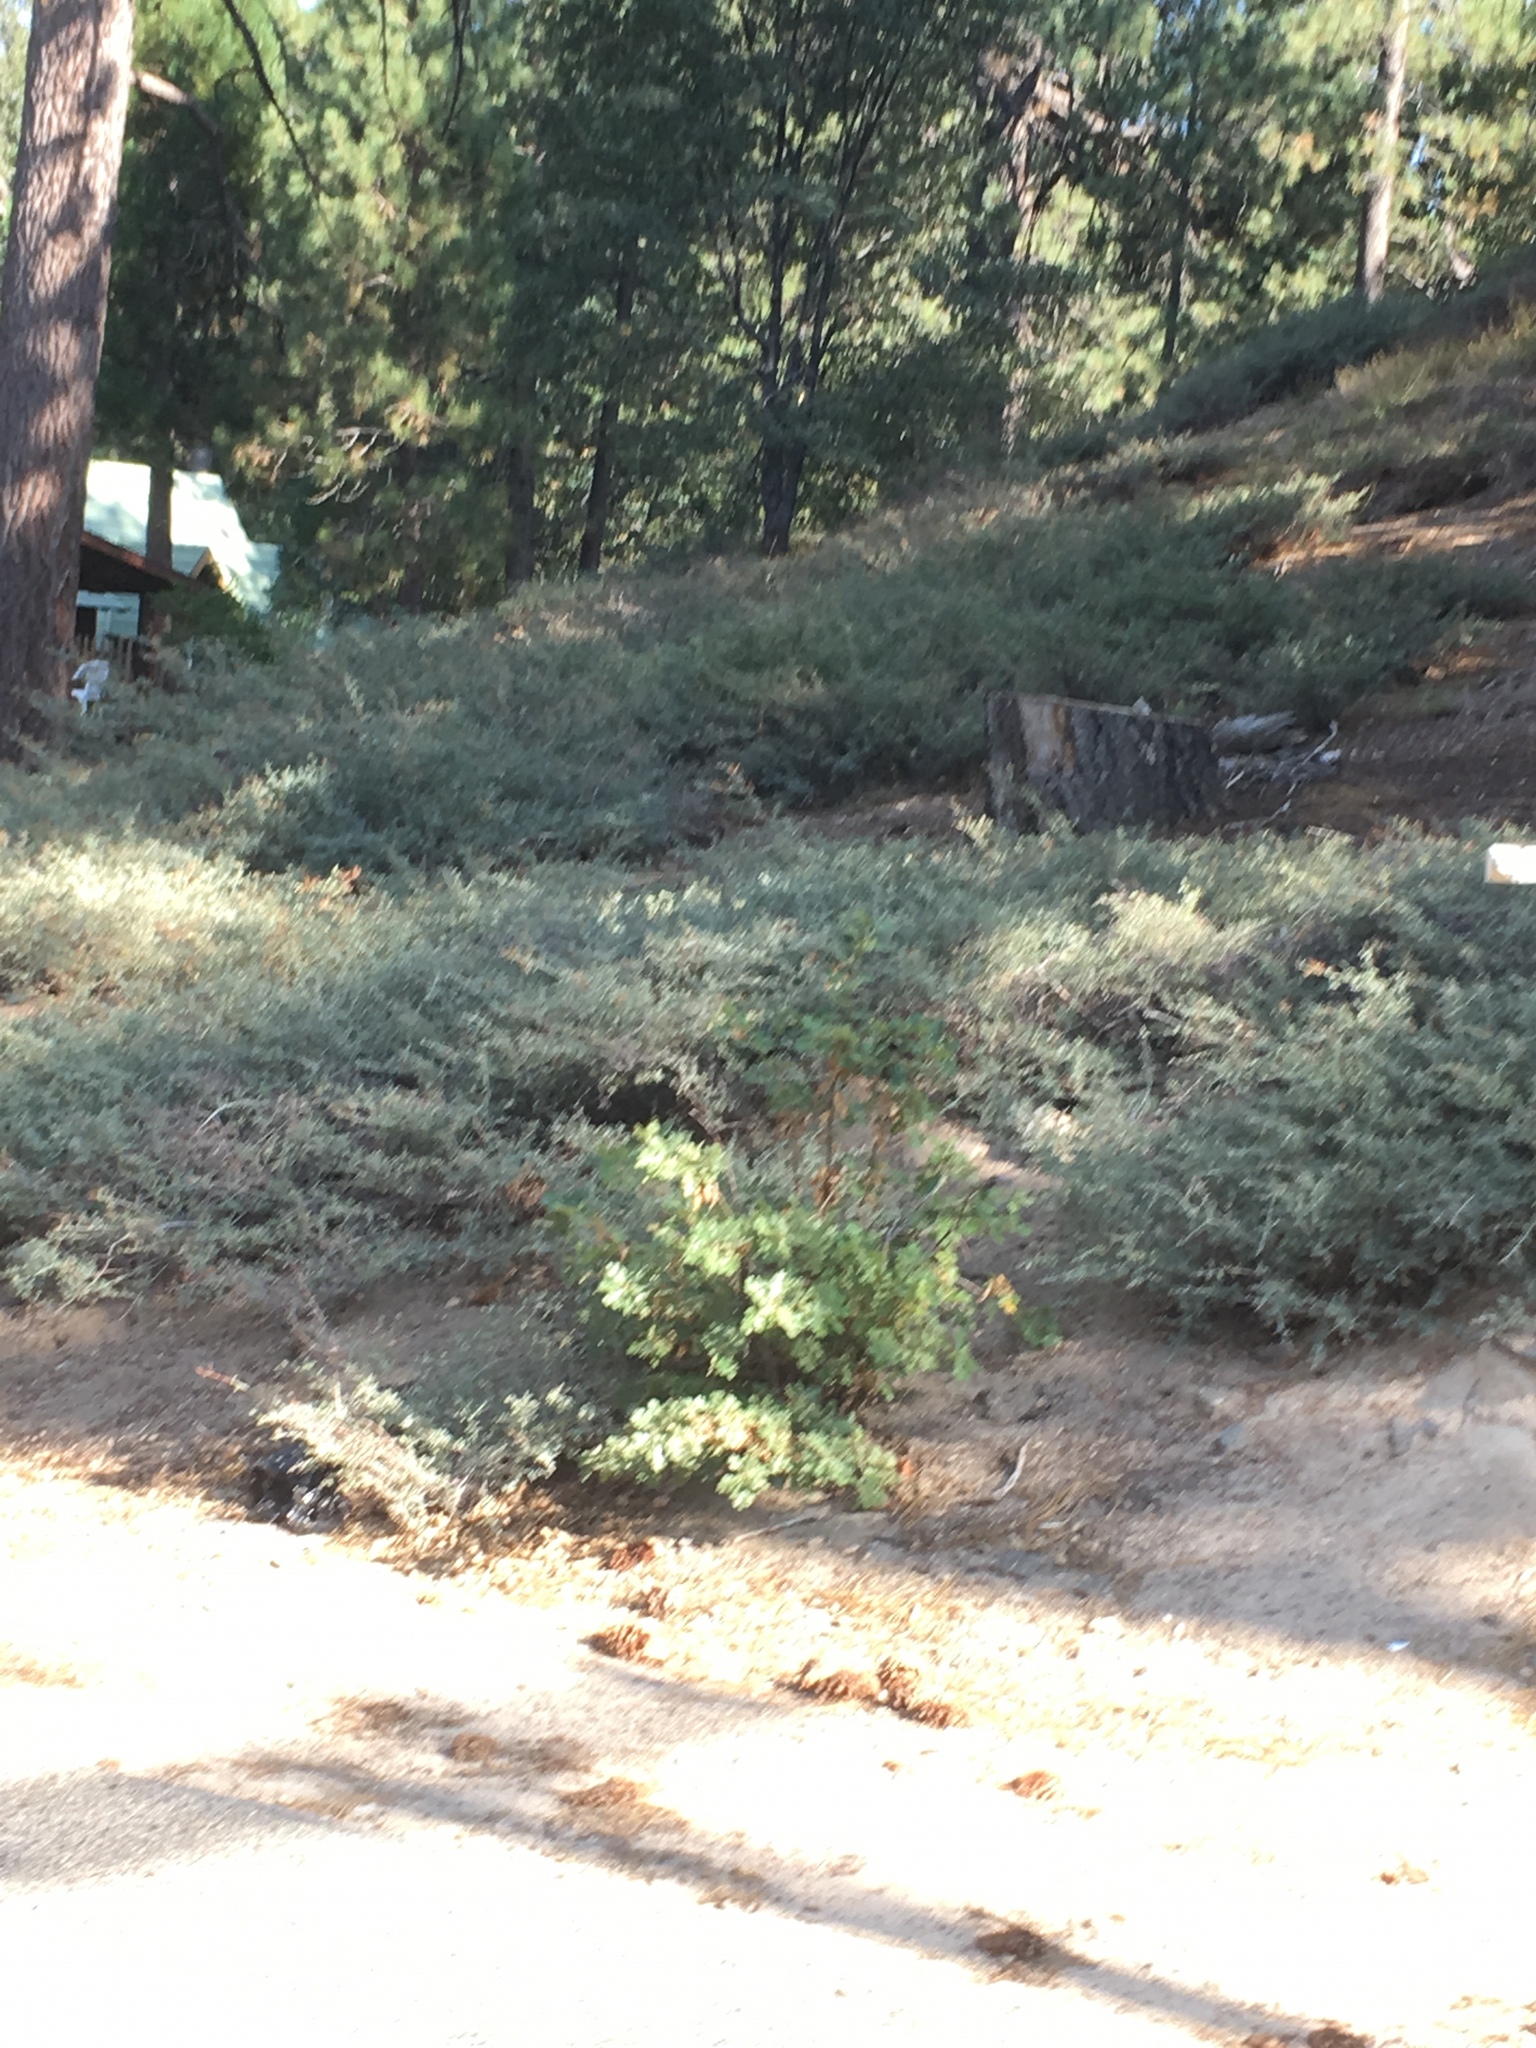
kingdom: Plantae
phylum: Tracheophyta
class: Magnoliopsida
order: Rosales
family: Rhamnaceae
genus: Ceanothus
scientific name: Ceanothus cordulatus
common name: Mountain whitethorn
